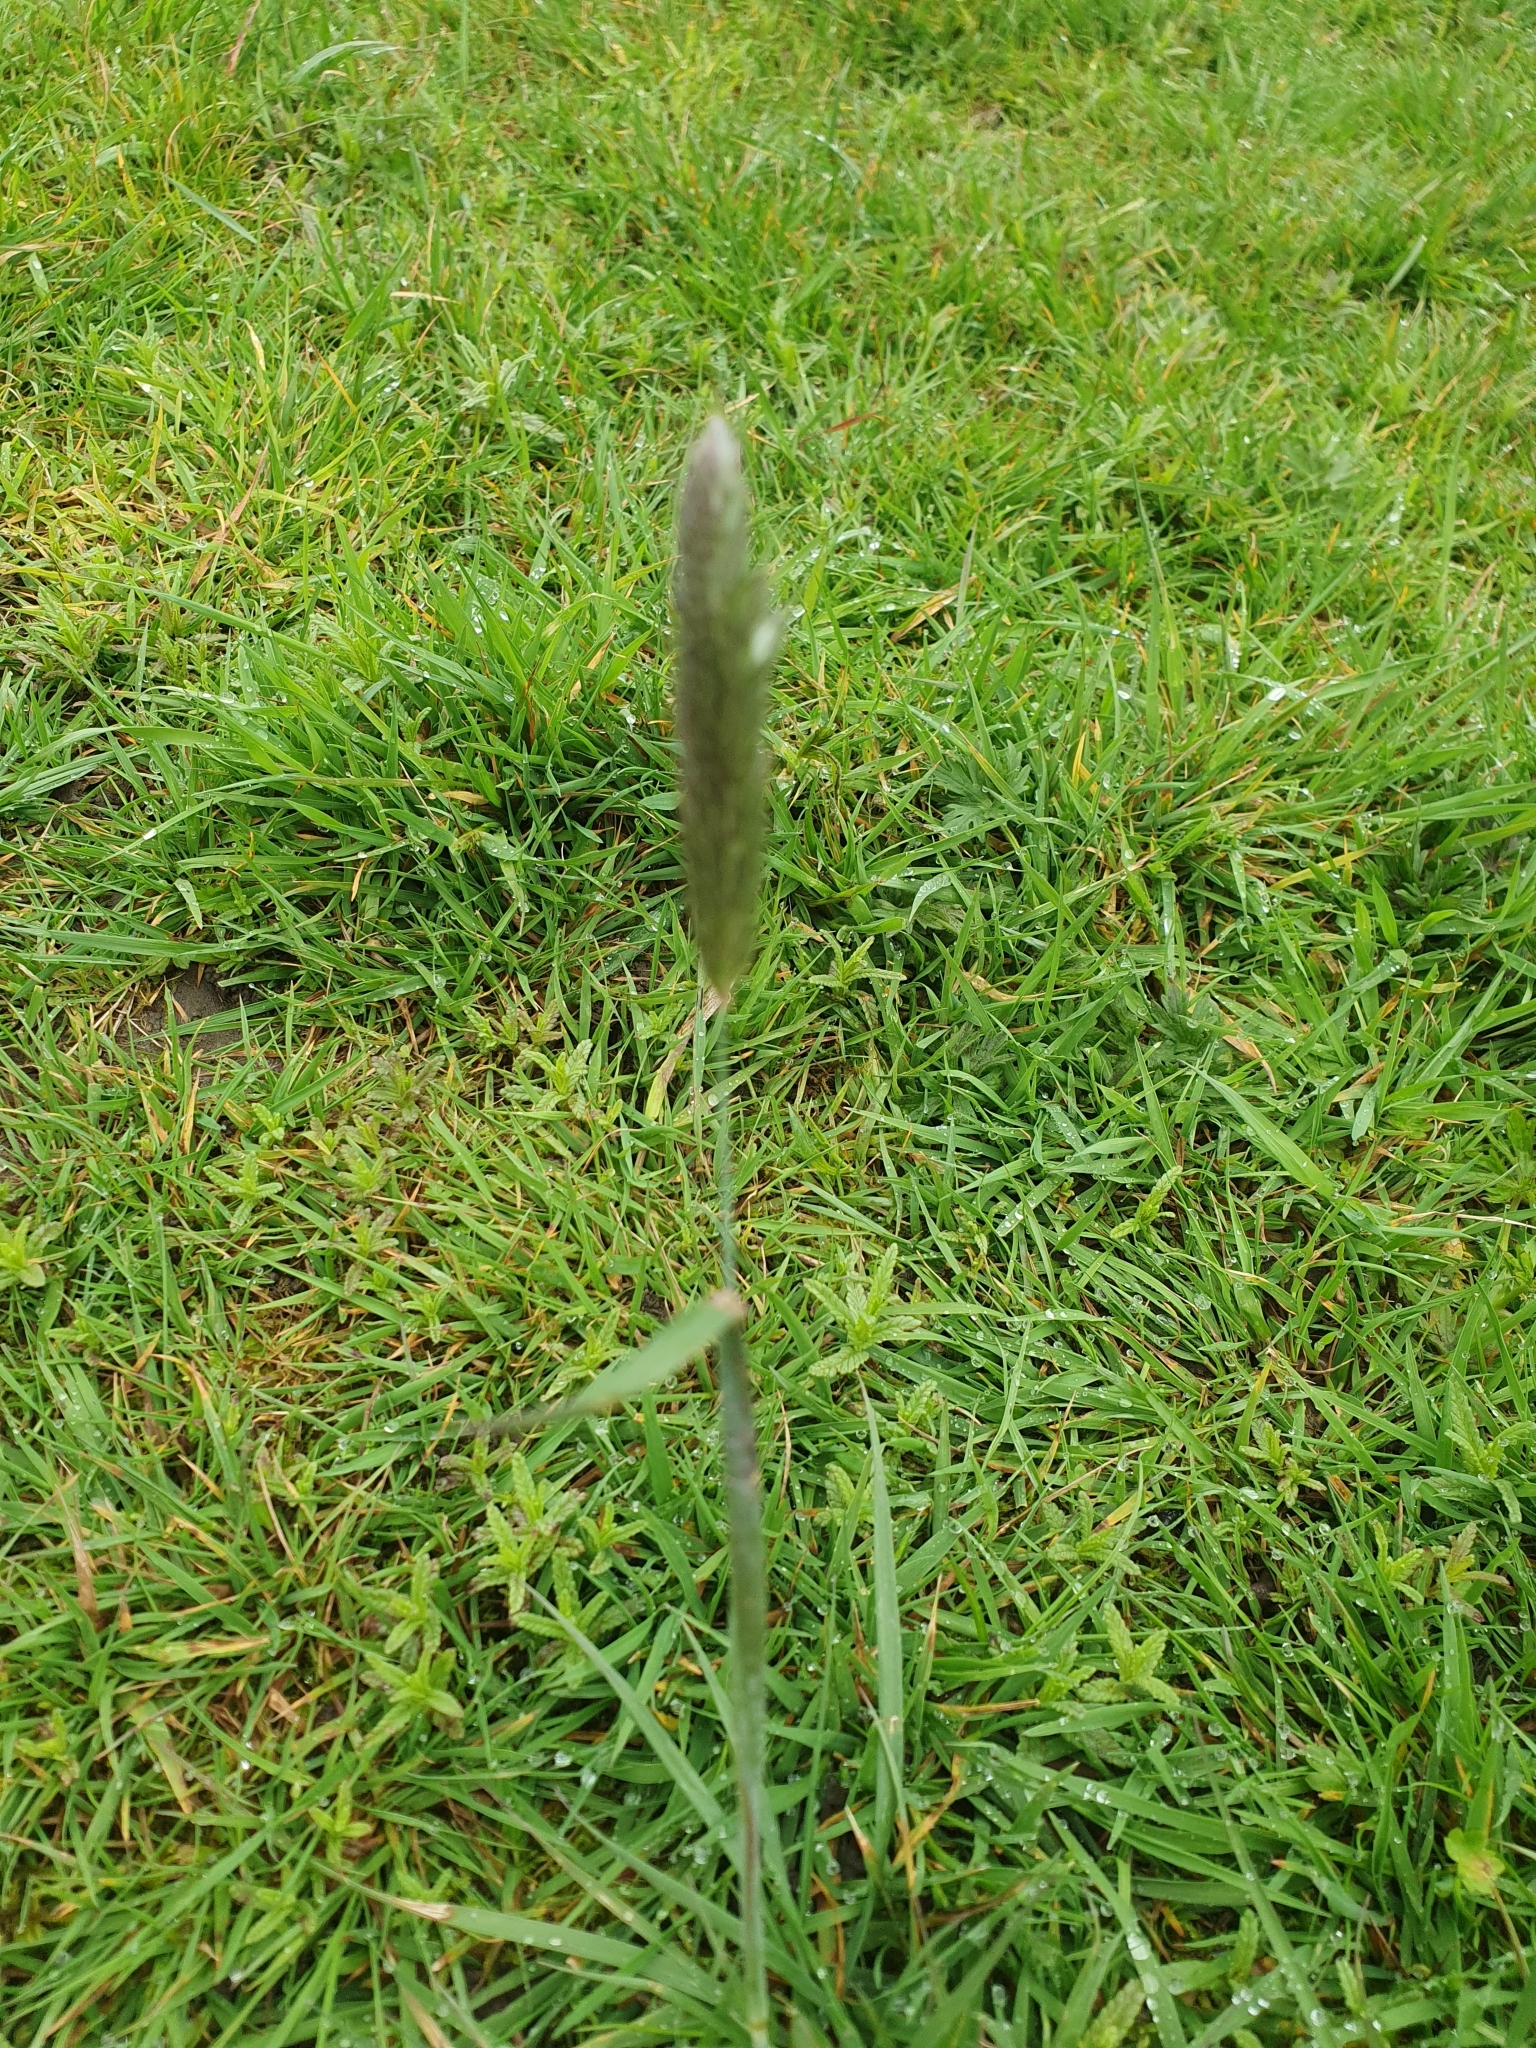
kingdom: Plantae
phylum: Tracheophyta
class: Liliopsida
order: Poales
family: Poaceae
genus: Alopecurus
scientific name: Alopecurus pratensis
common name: Meadow foxtail
